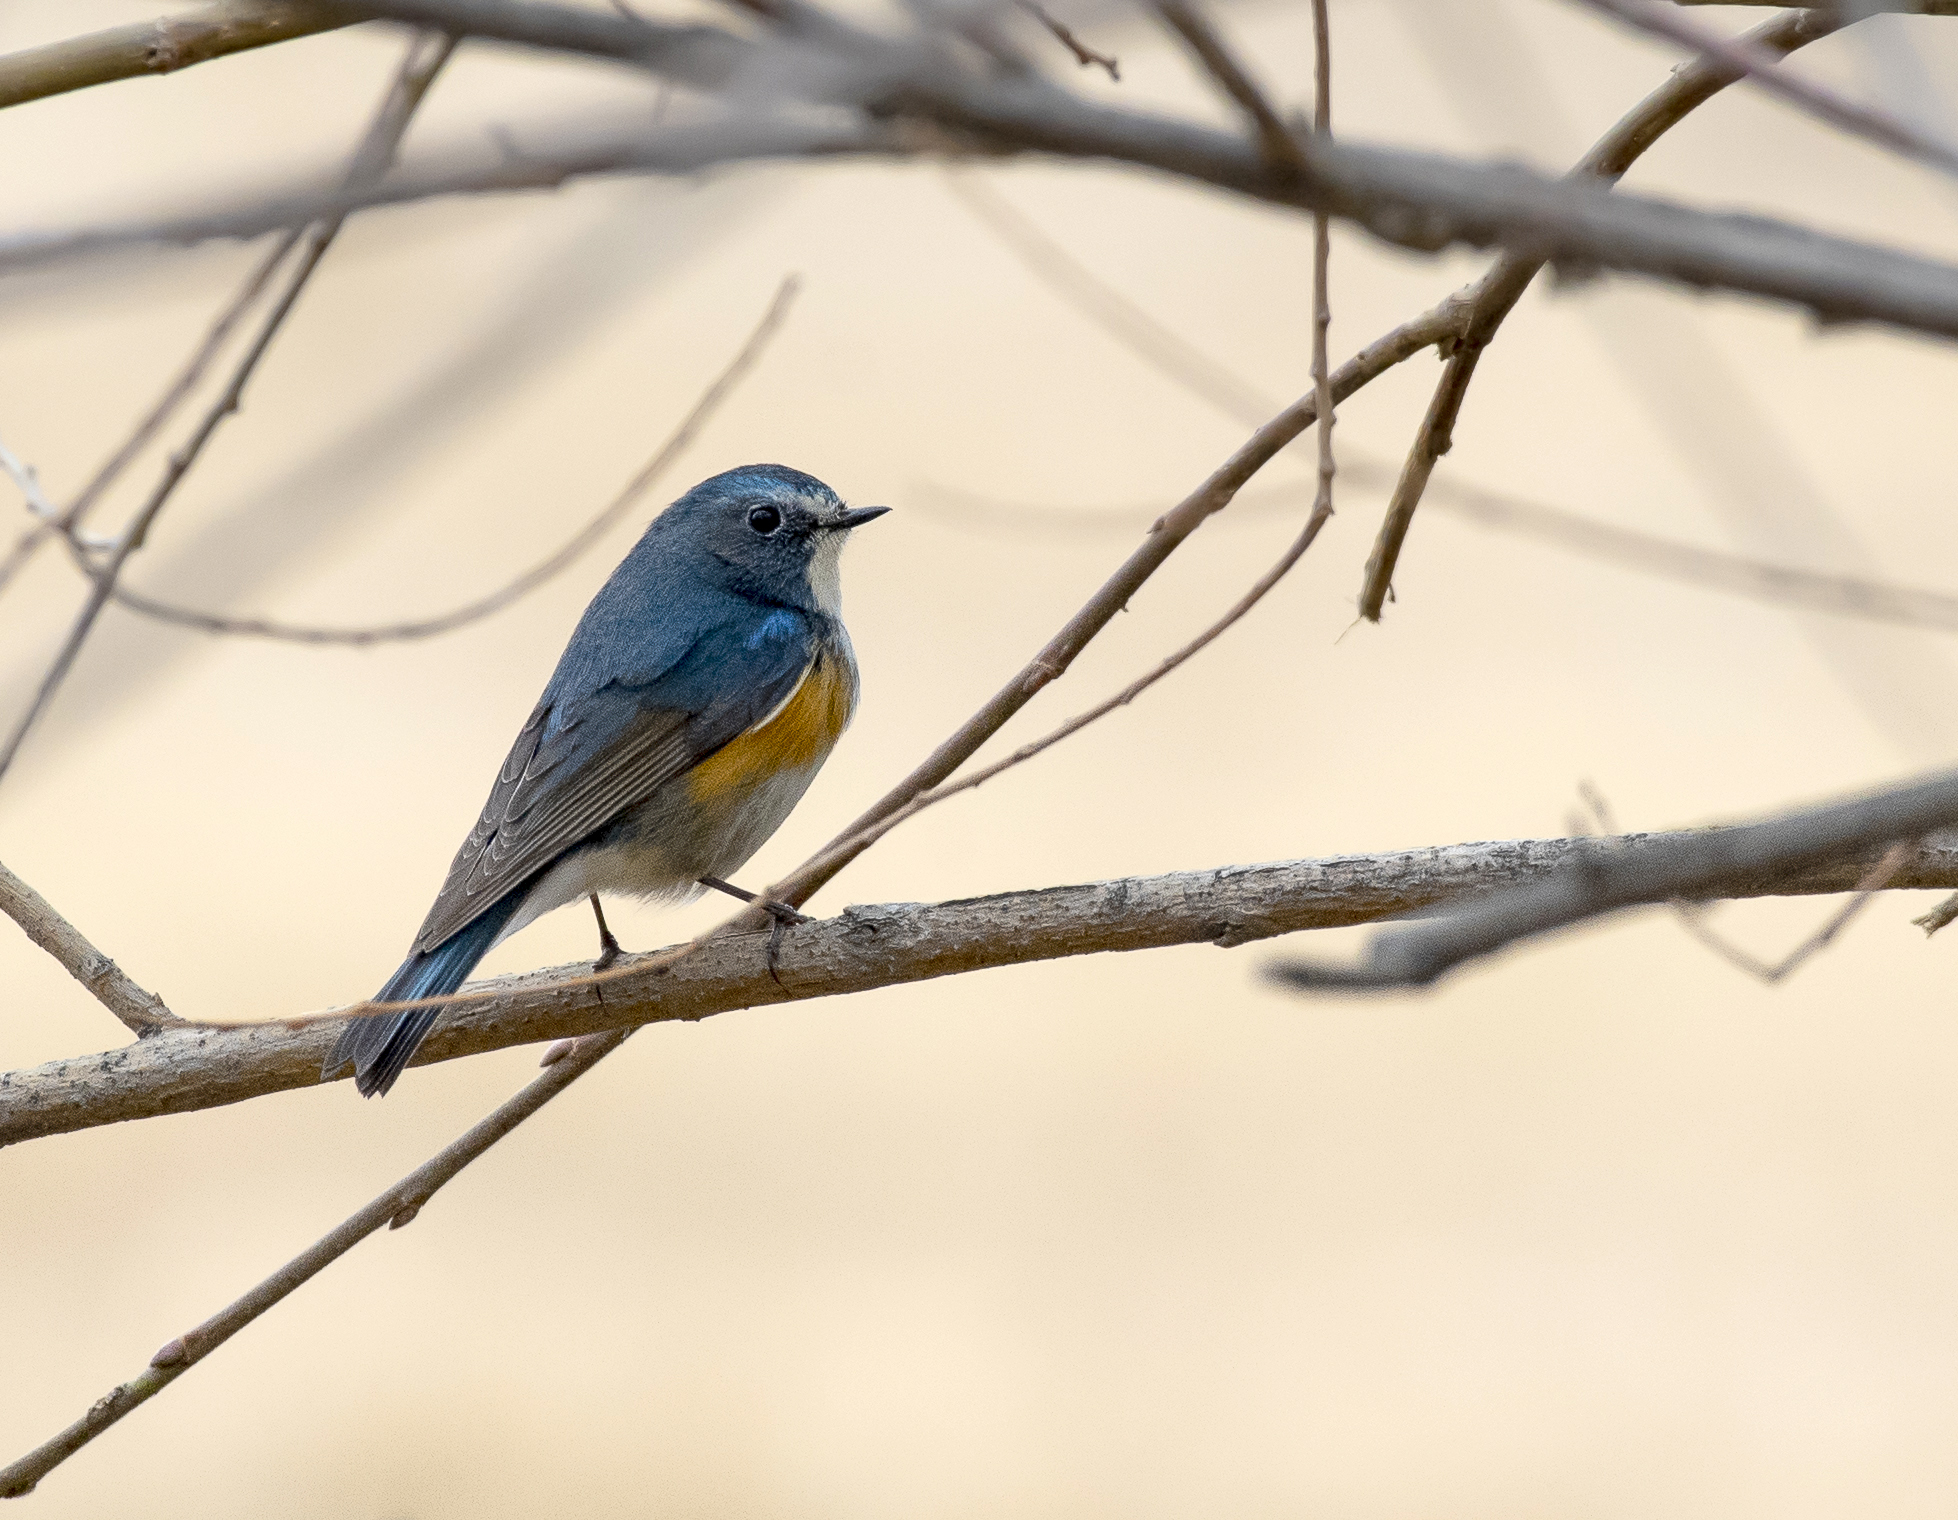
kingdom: Animalia
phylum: Chordata
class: Aves
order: Passeriformes
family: Muscicapidae
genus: Tarsiger
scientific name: Tarsiger cyanurus
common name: Red-flanked bluetail
